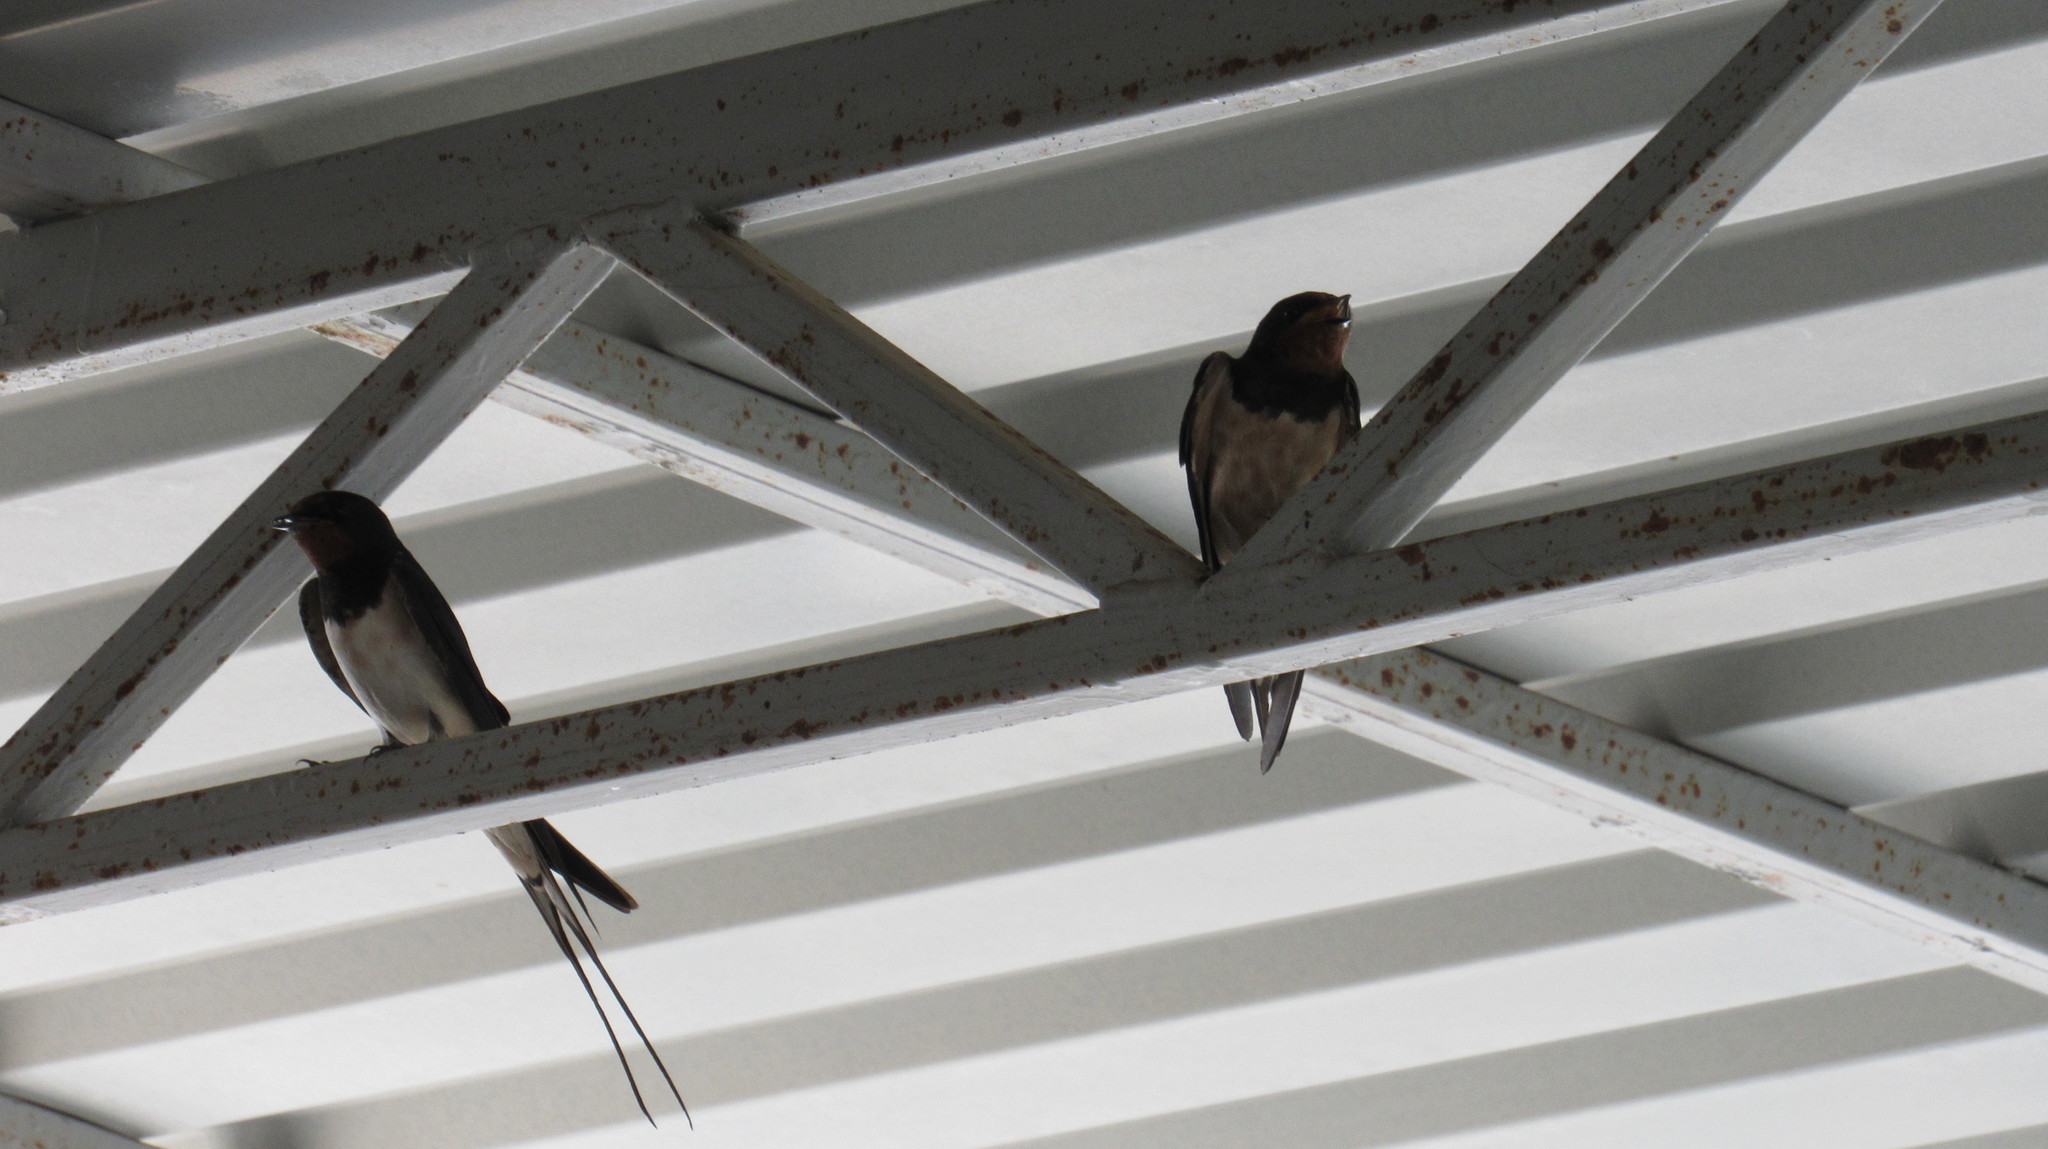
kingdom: Animalia
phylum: Chordata
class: Aves
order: Passeriformes
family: Hirundinidae
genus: Hirundo
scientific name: Hirundo rustica
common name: Barn swallow
